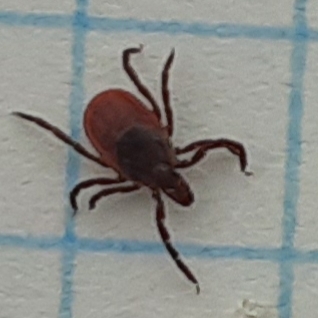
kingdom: Animalia
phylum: Arthropoda
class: Arachnida
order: Ixodida
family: Ixodidae
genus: Ixodes
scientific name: Ixodes scapularis
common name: Black legged tick
